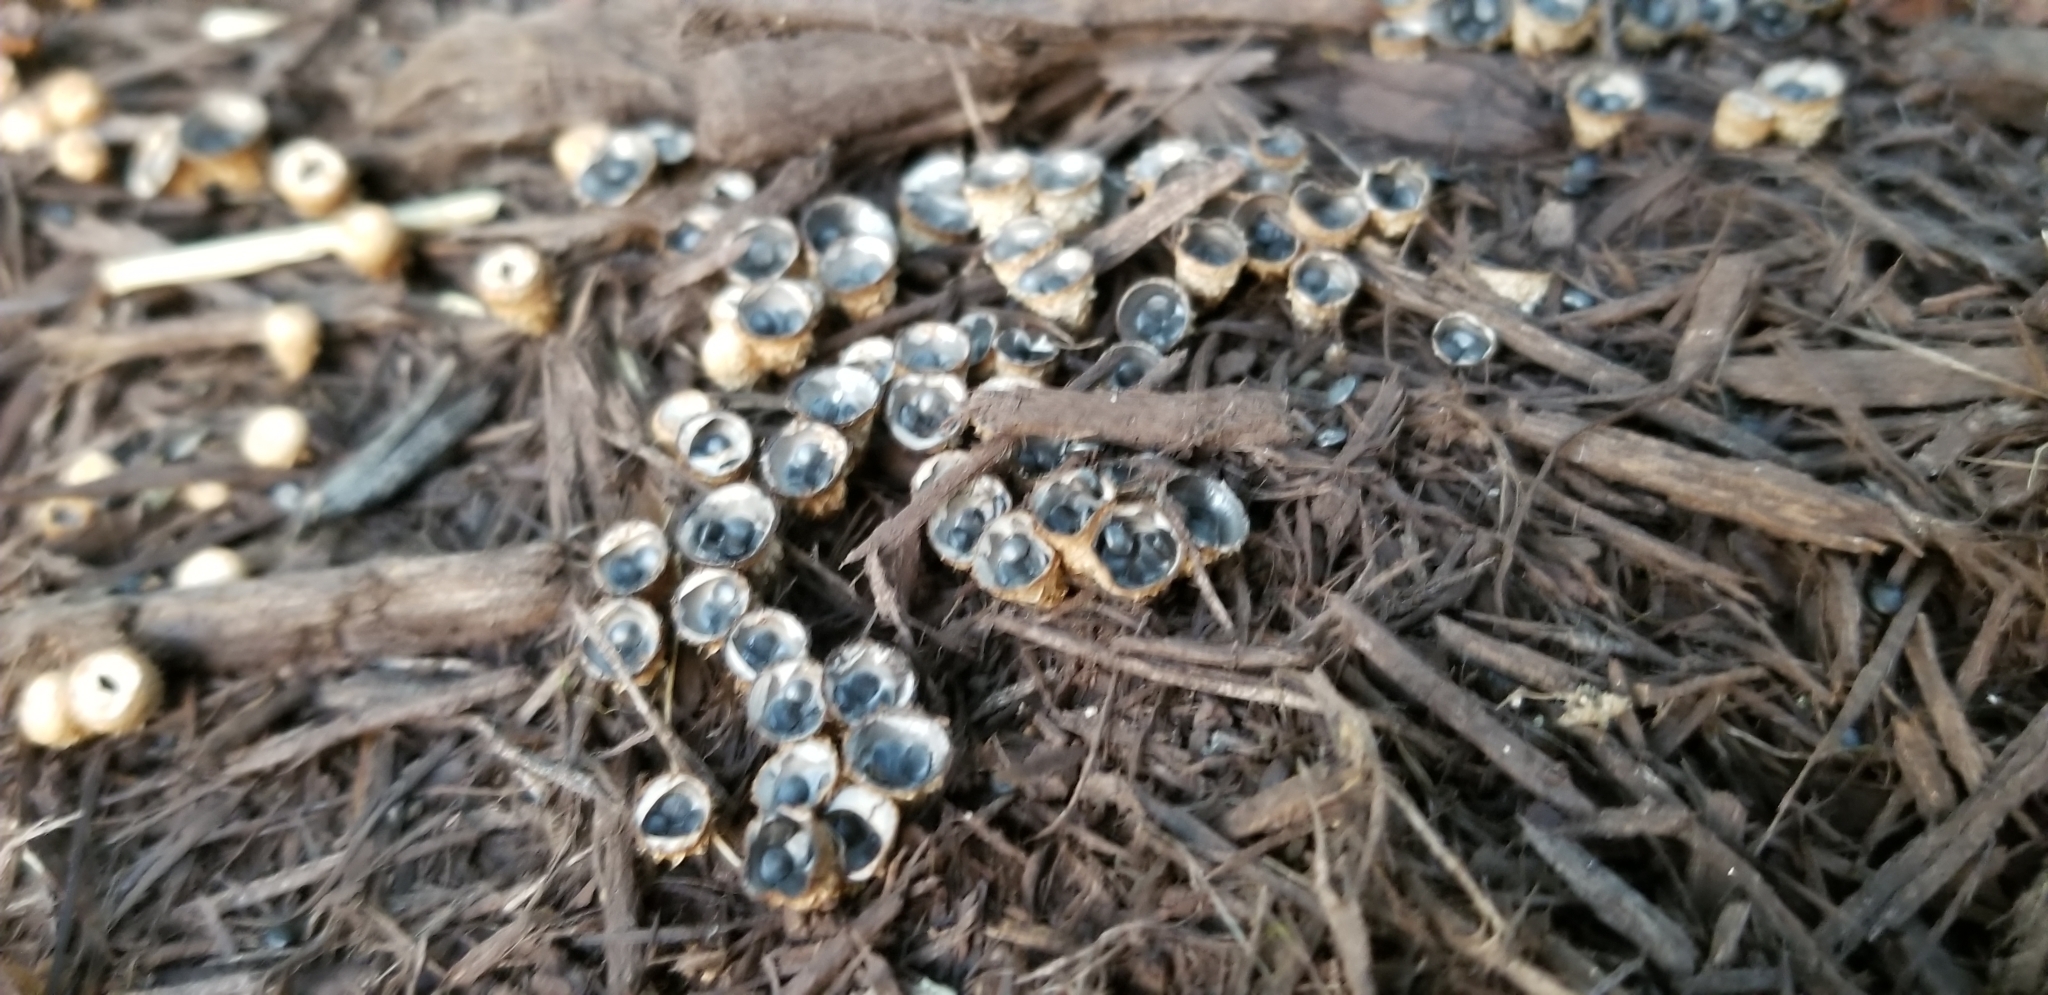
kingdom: Fungi
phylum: Basidiomycota
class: Agaricomycetes
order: Agaricales
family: Agaricaceae
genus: Cyathus
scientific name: Cyathus stercoreus
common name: Dung bird's nest
